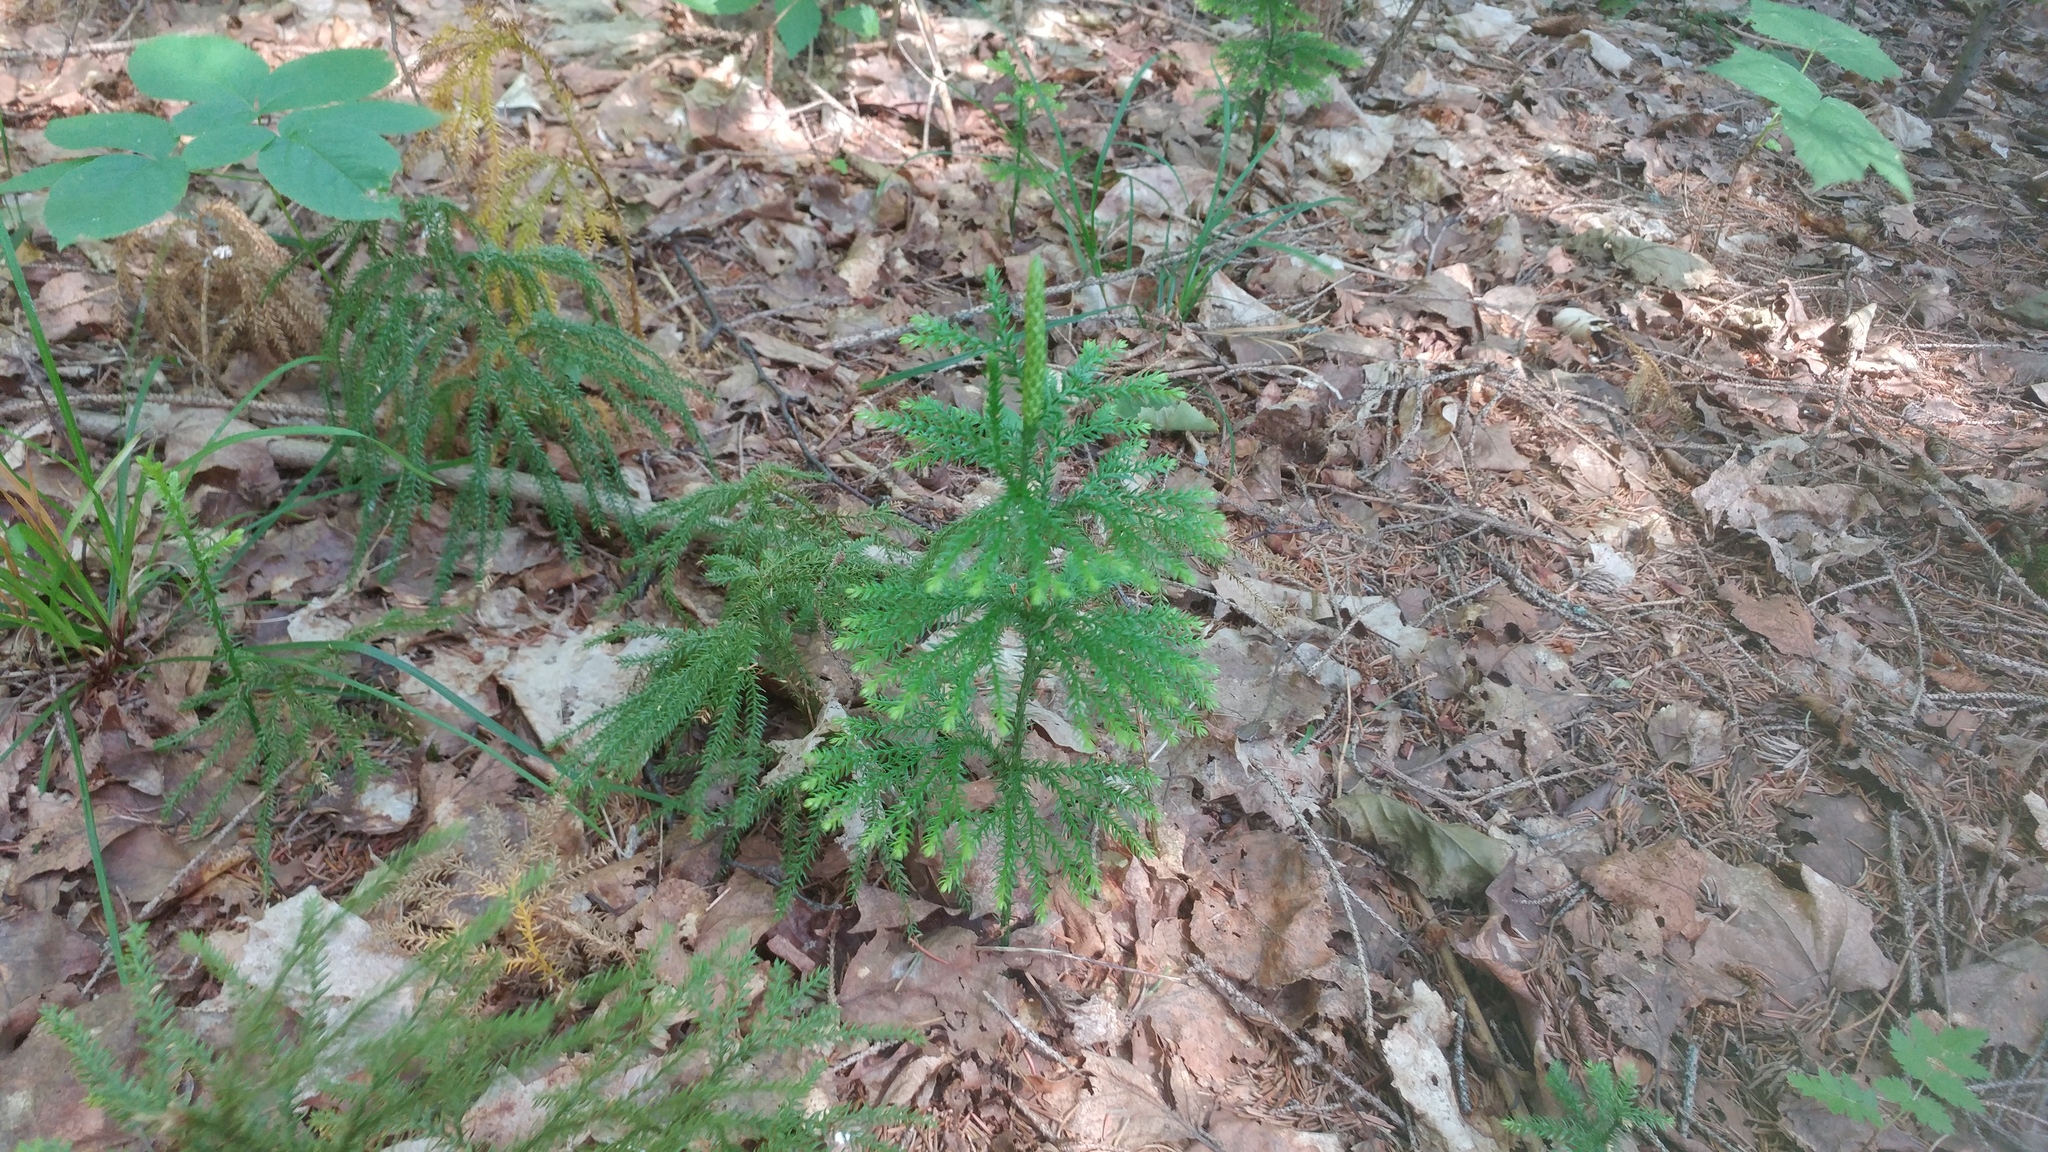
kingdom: Plantae
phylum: Tracheophyta
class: Lycopodiopsida
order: Lycopodiales
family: Lycopodiaceae
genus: Dendrolycopodium
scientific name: Dendrolycopodium dendroideum
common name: Northern tree-clubmoss
